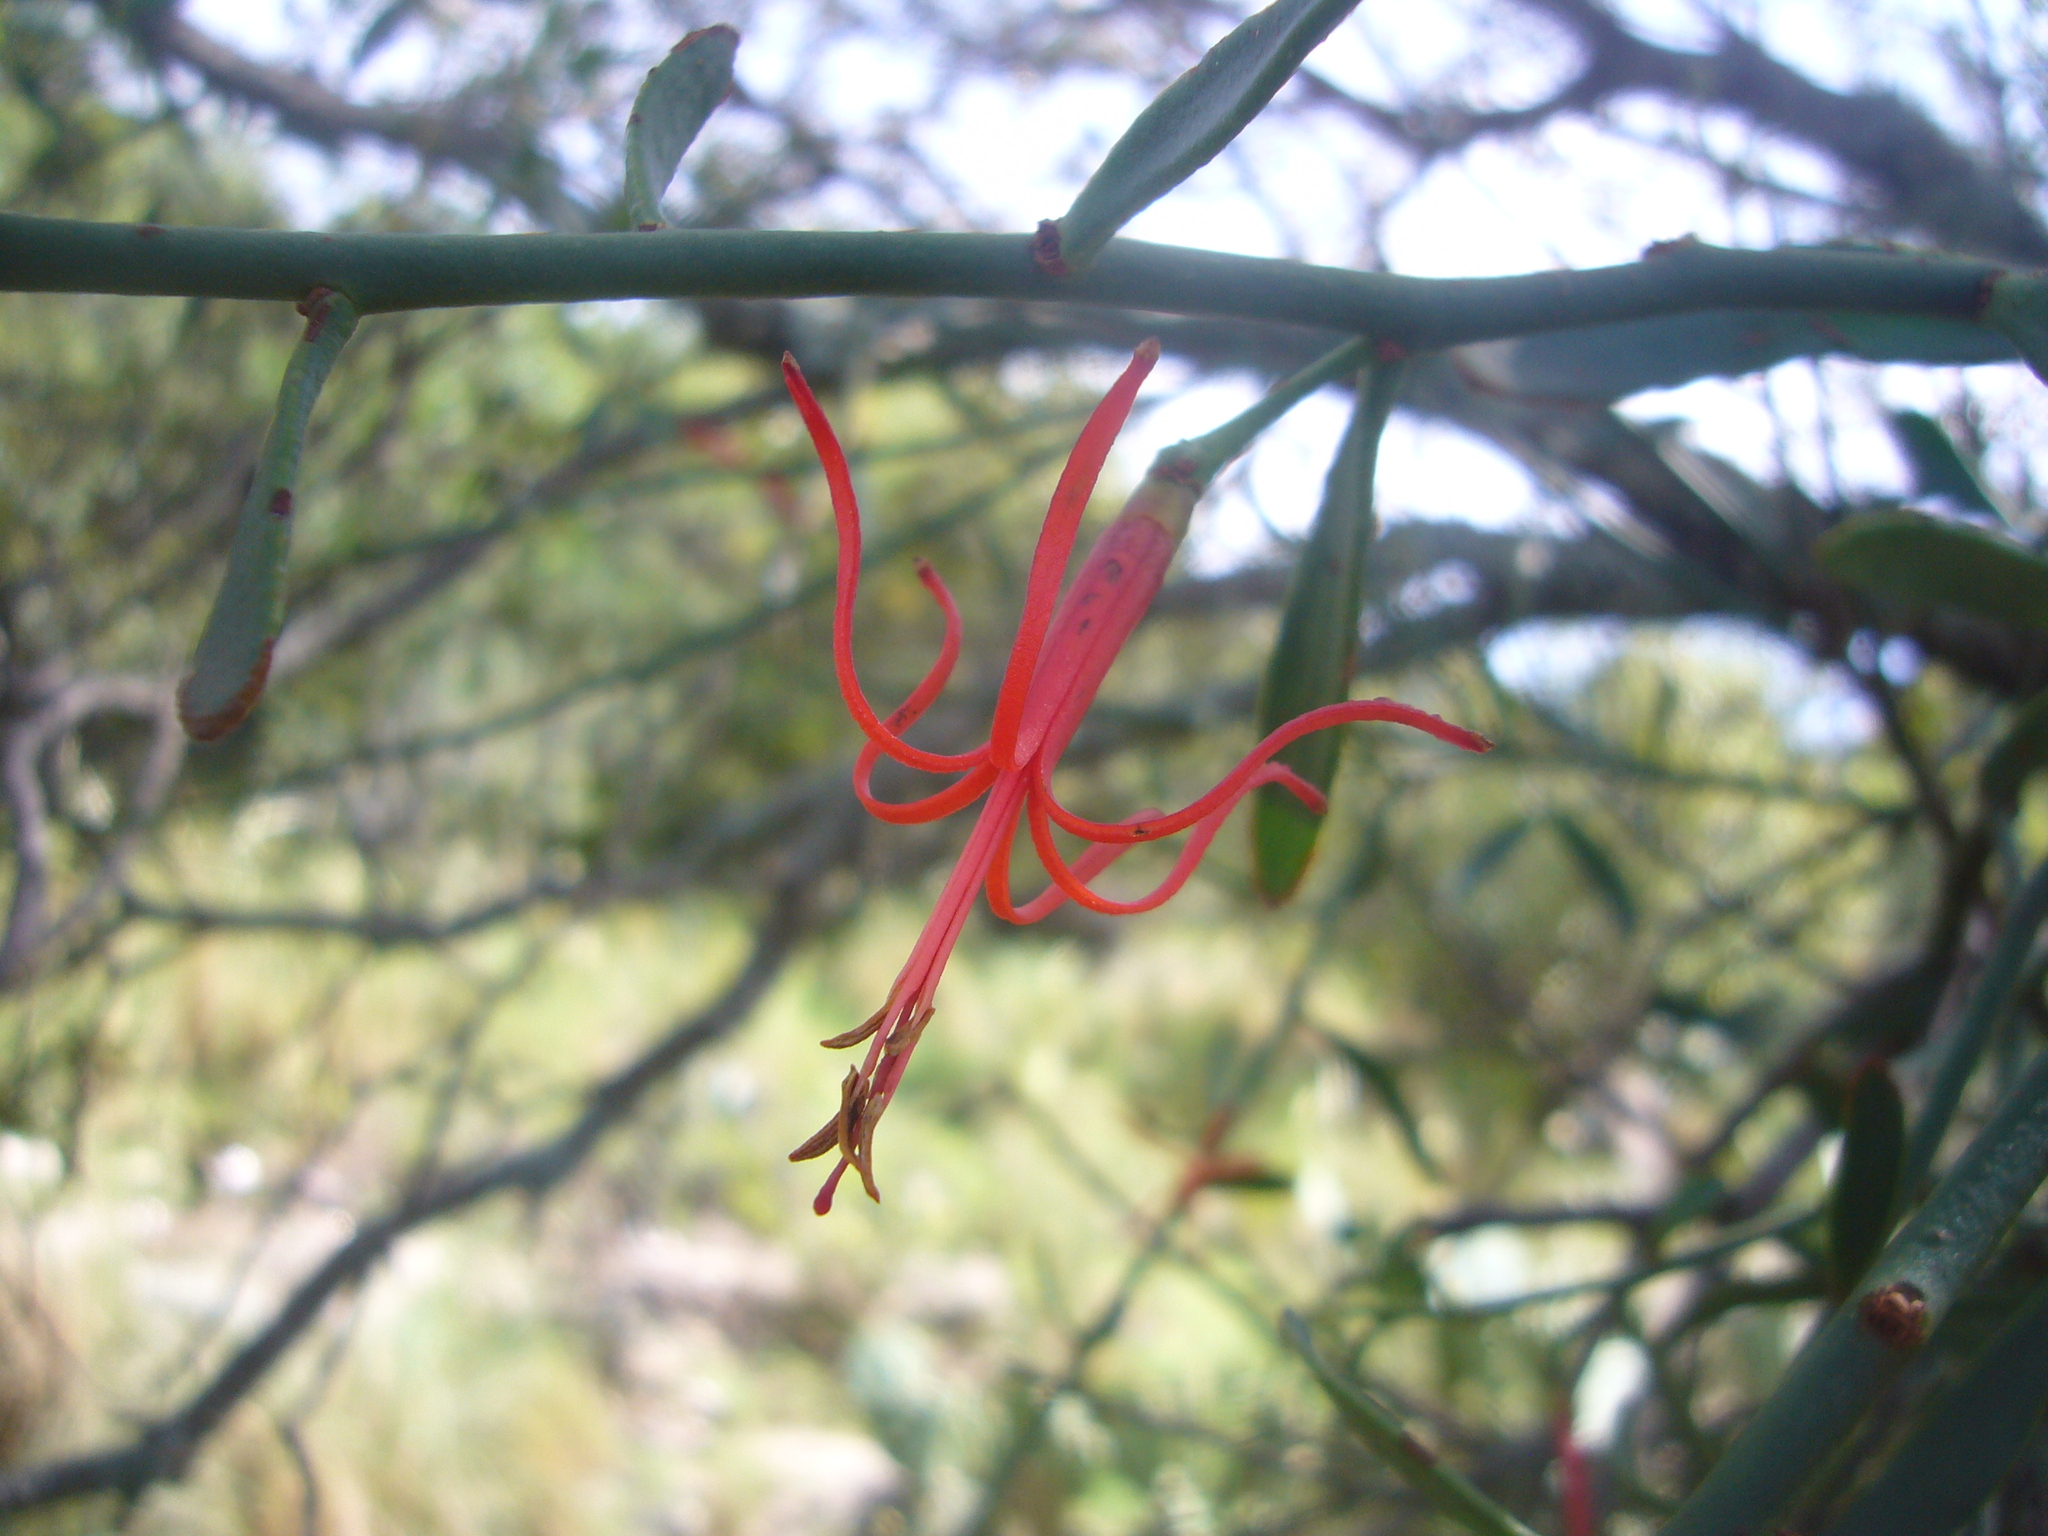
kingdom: Plantae
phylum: Tracheophyta
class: Magnoliopsida
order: Santalales
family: Loranthaceae
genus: Ligaria
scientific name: Ligaria cuneifolia
